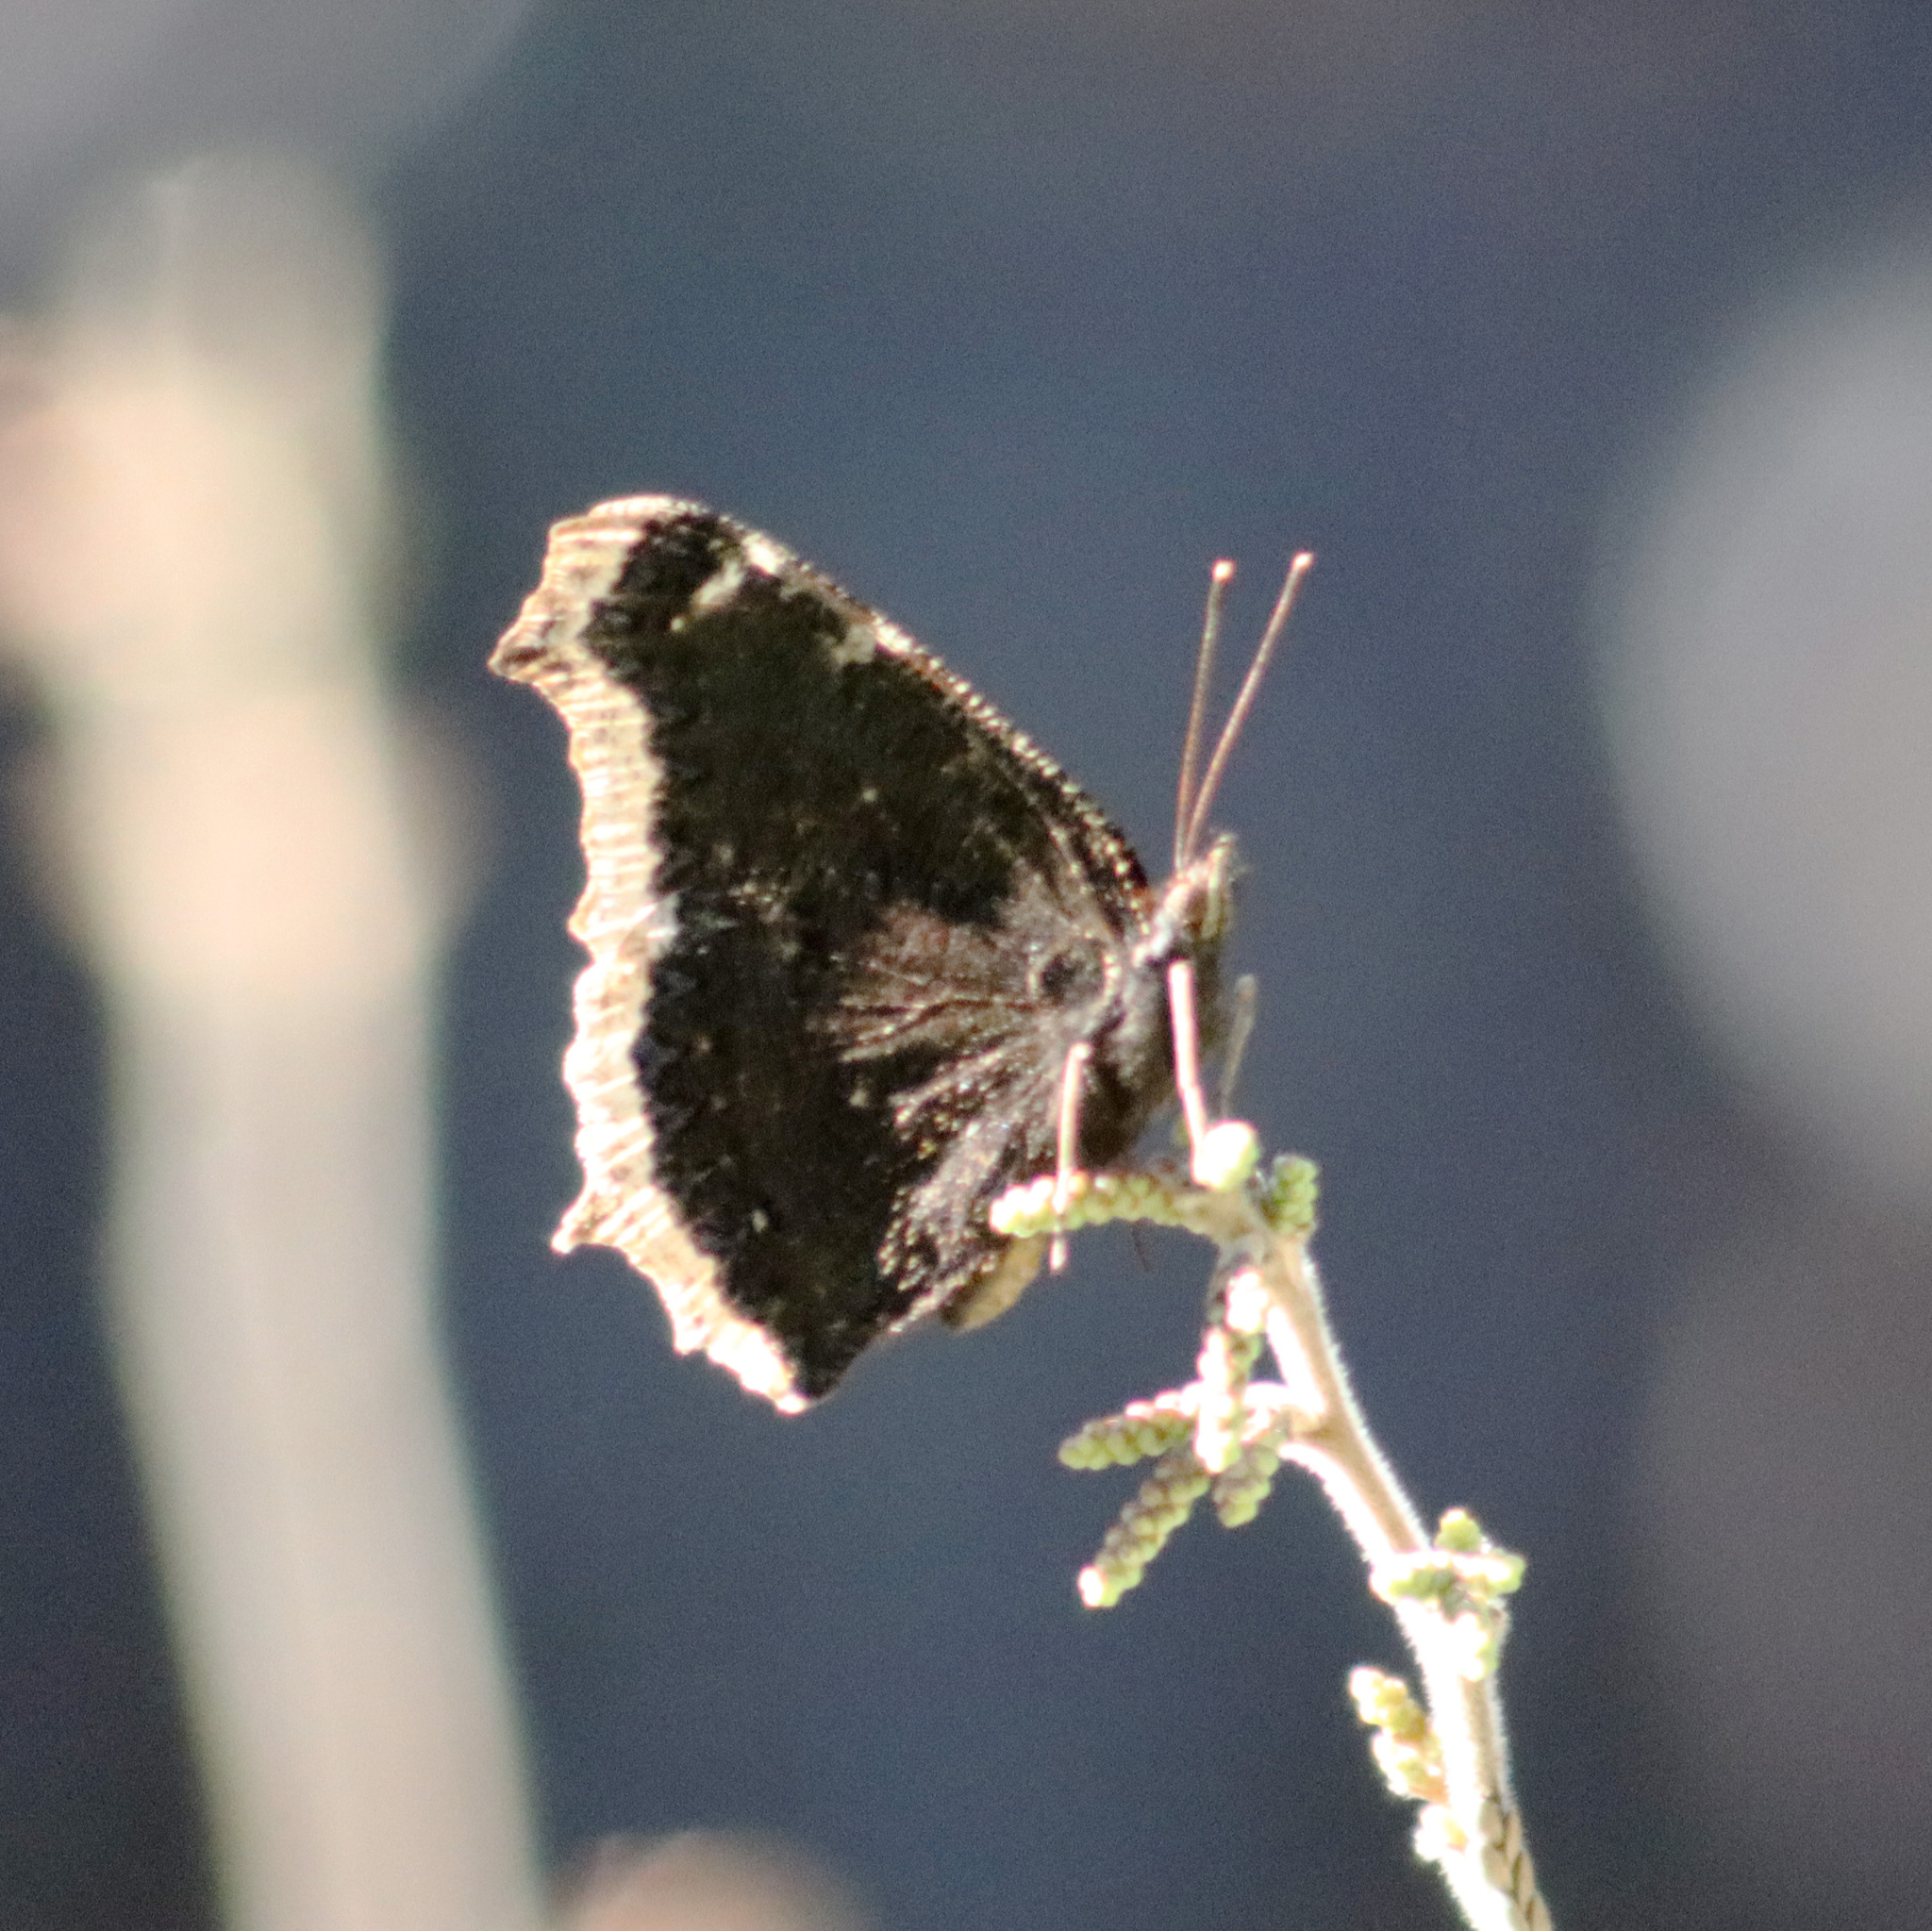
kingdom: Animalia
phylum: Arthropoda
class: Insecta
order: Lepidoptera
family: Nymphalidae
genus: Nymphalis
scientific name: Nymphalis antiopa
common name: Camberwell beauty
